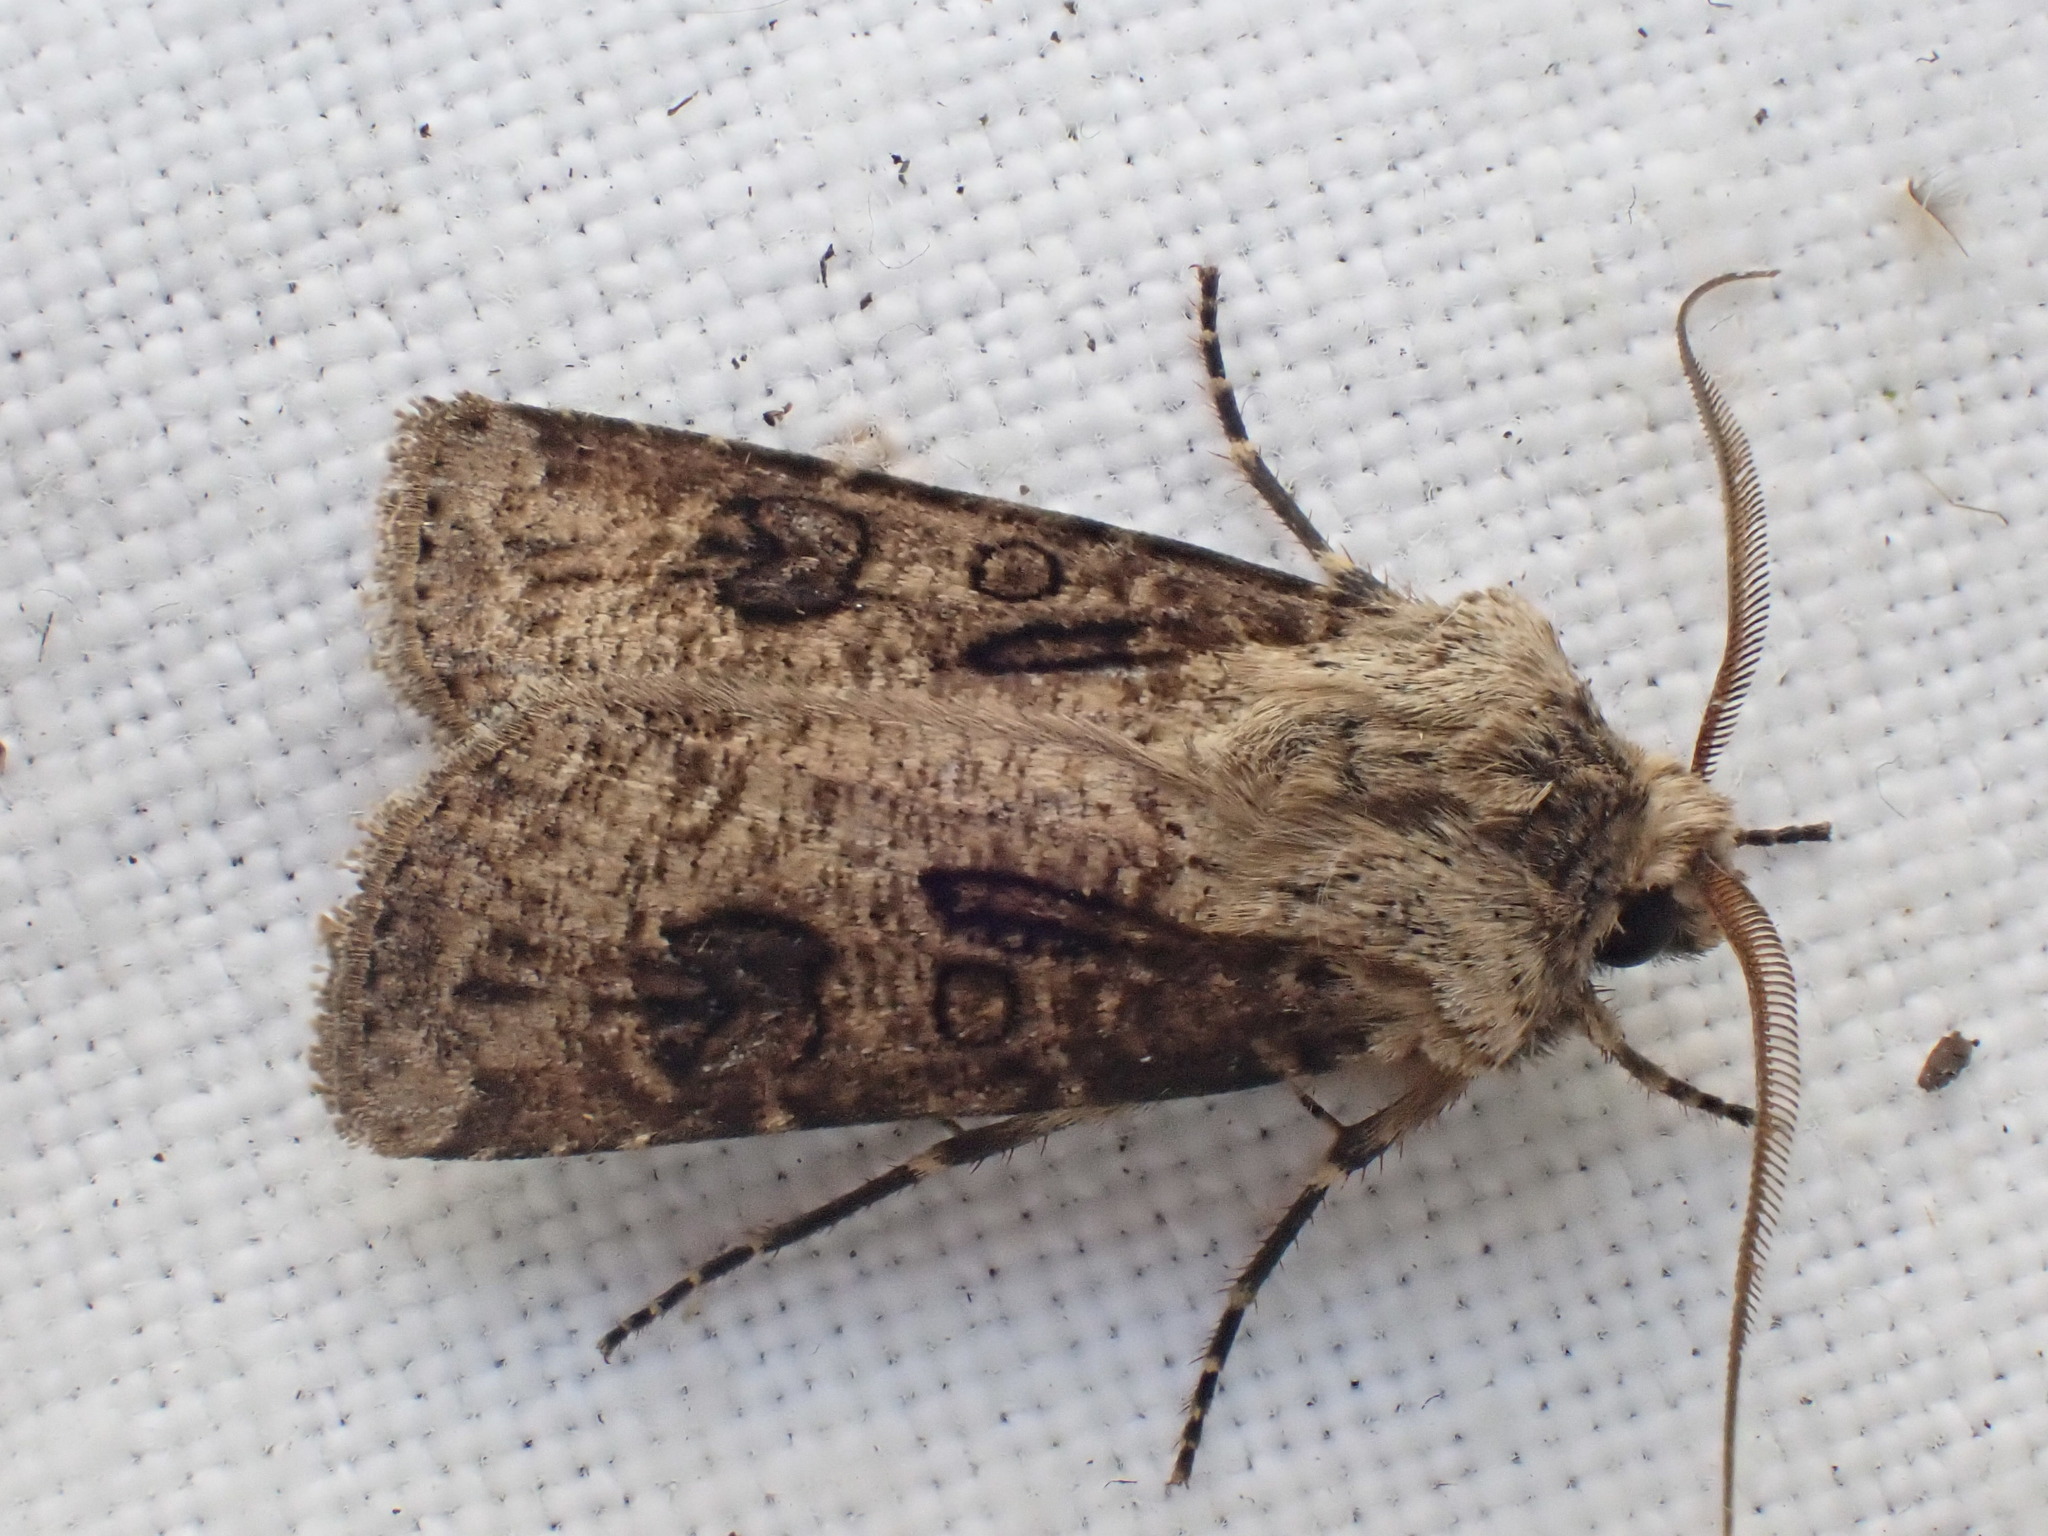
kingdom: Animalia
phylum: Arthropoda
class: Insecta
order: Lepidoptera
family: Noctuidae
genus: Agrotis
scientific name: Agrotis clavis
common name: Heart and club
